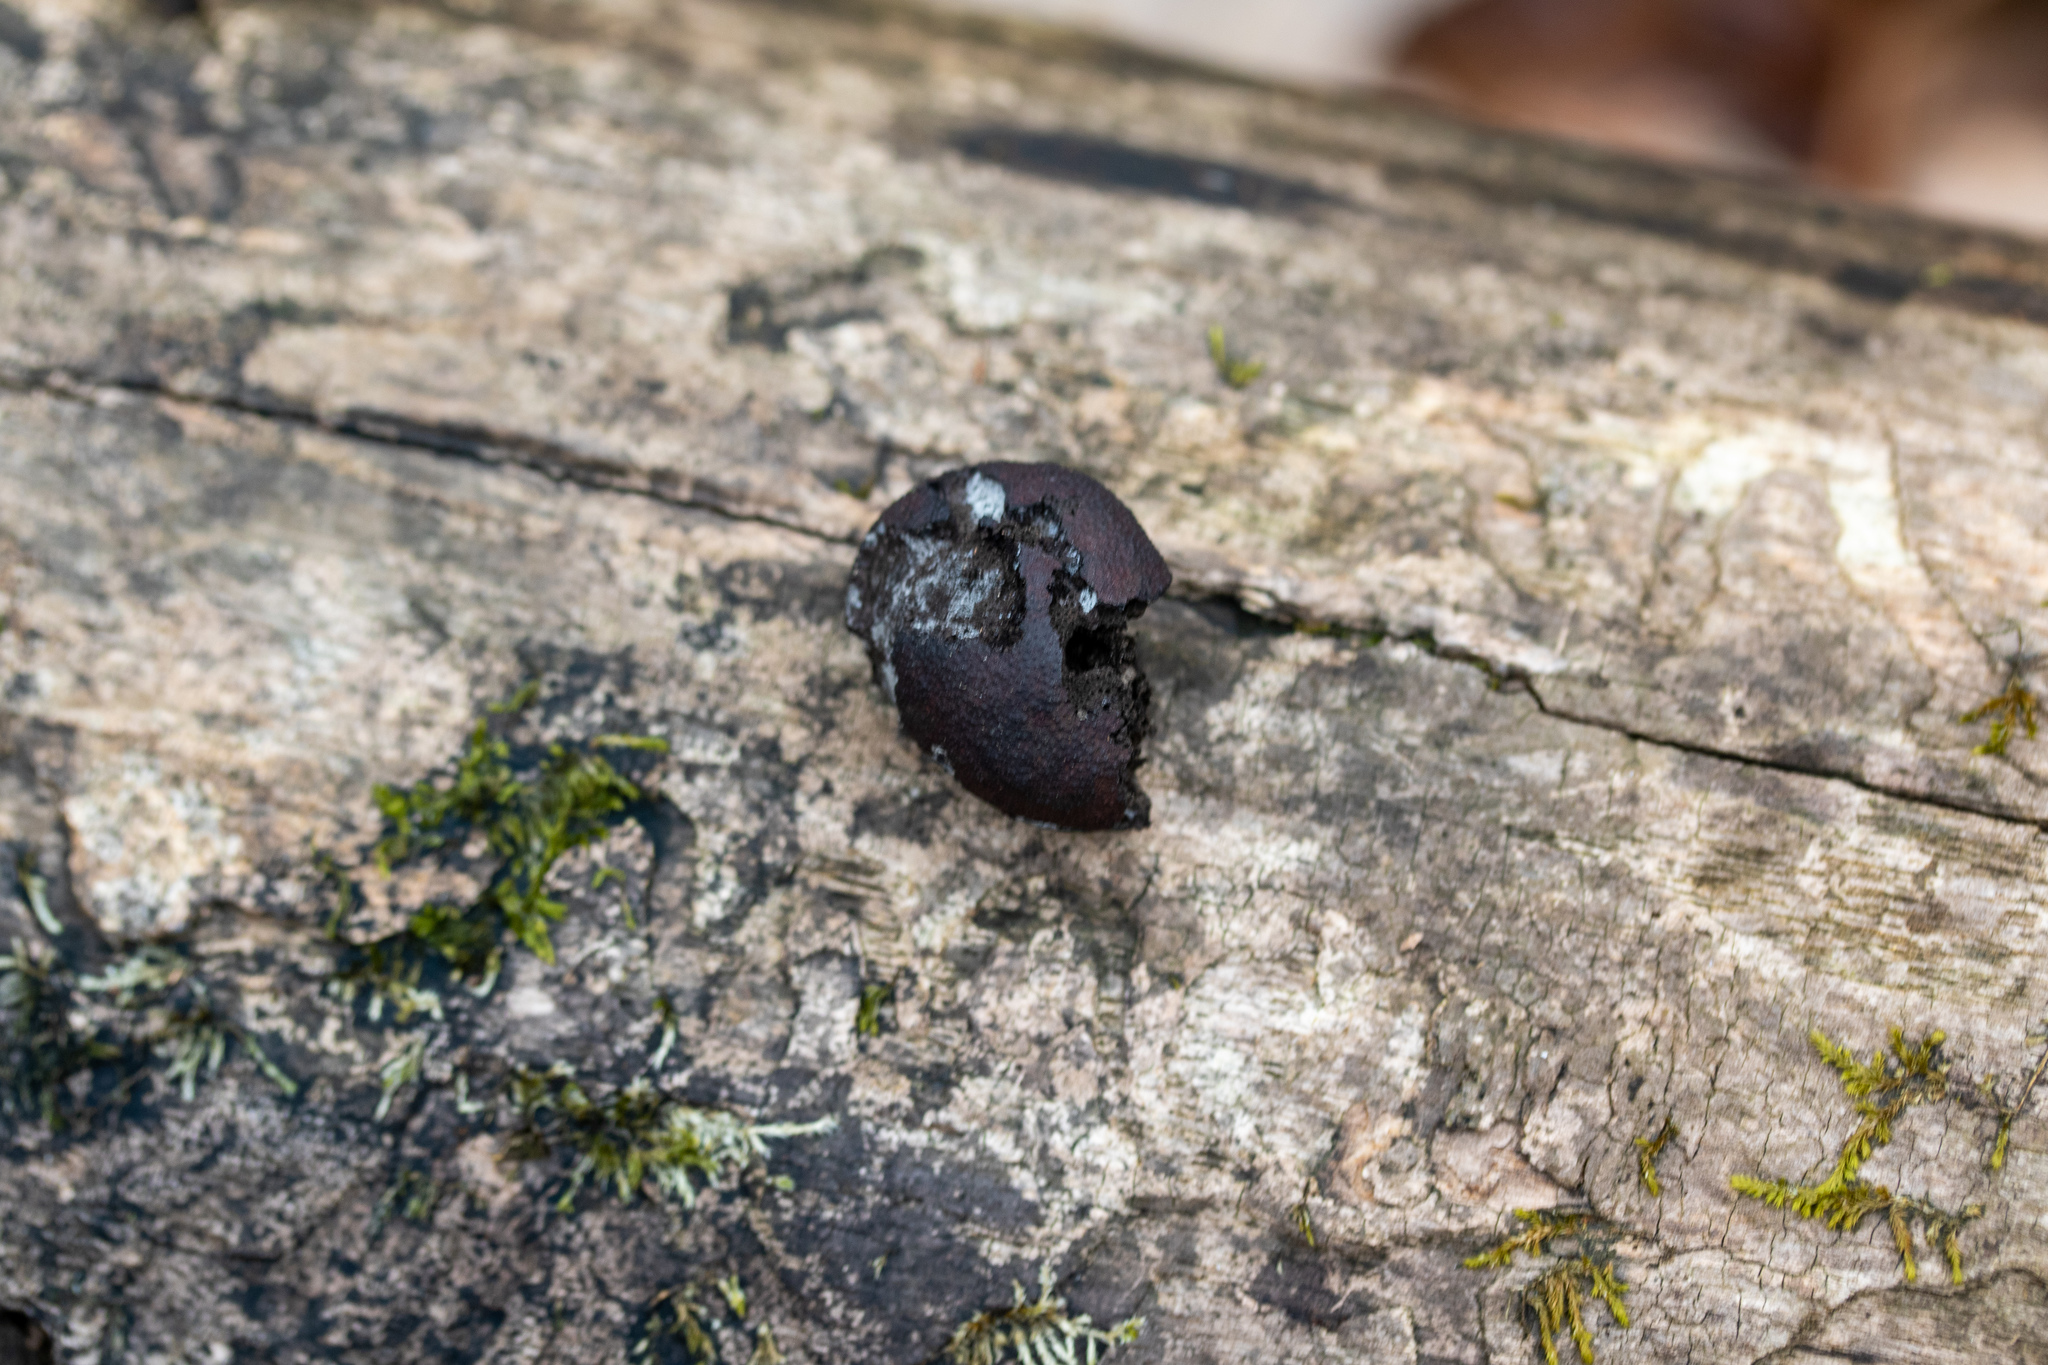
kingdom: Fungi
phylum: Ascomycota
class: Sordariomycetes
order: Xylariales
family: Hypoxylaceae
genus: Daldinia
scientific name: Daldinia childiae
